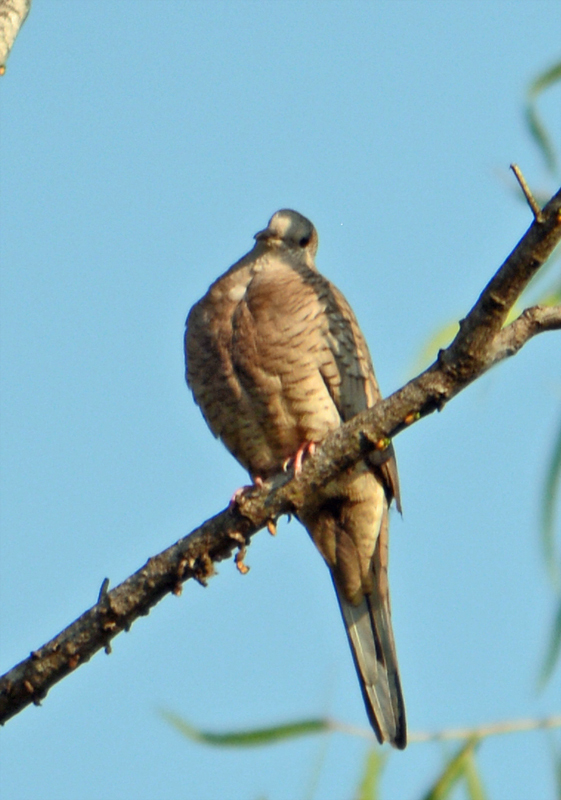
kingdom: Animalia
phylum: Chordata
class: Aves
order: Columbiformes
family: Columbidae
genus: Columbina
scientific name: Columbina inca
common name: Inca dove
